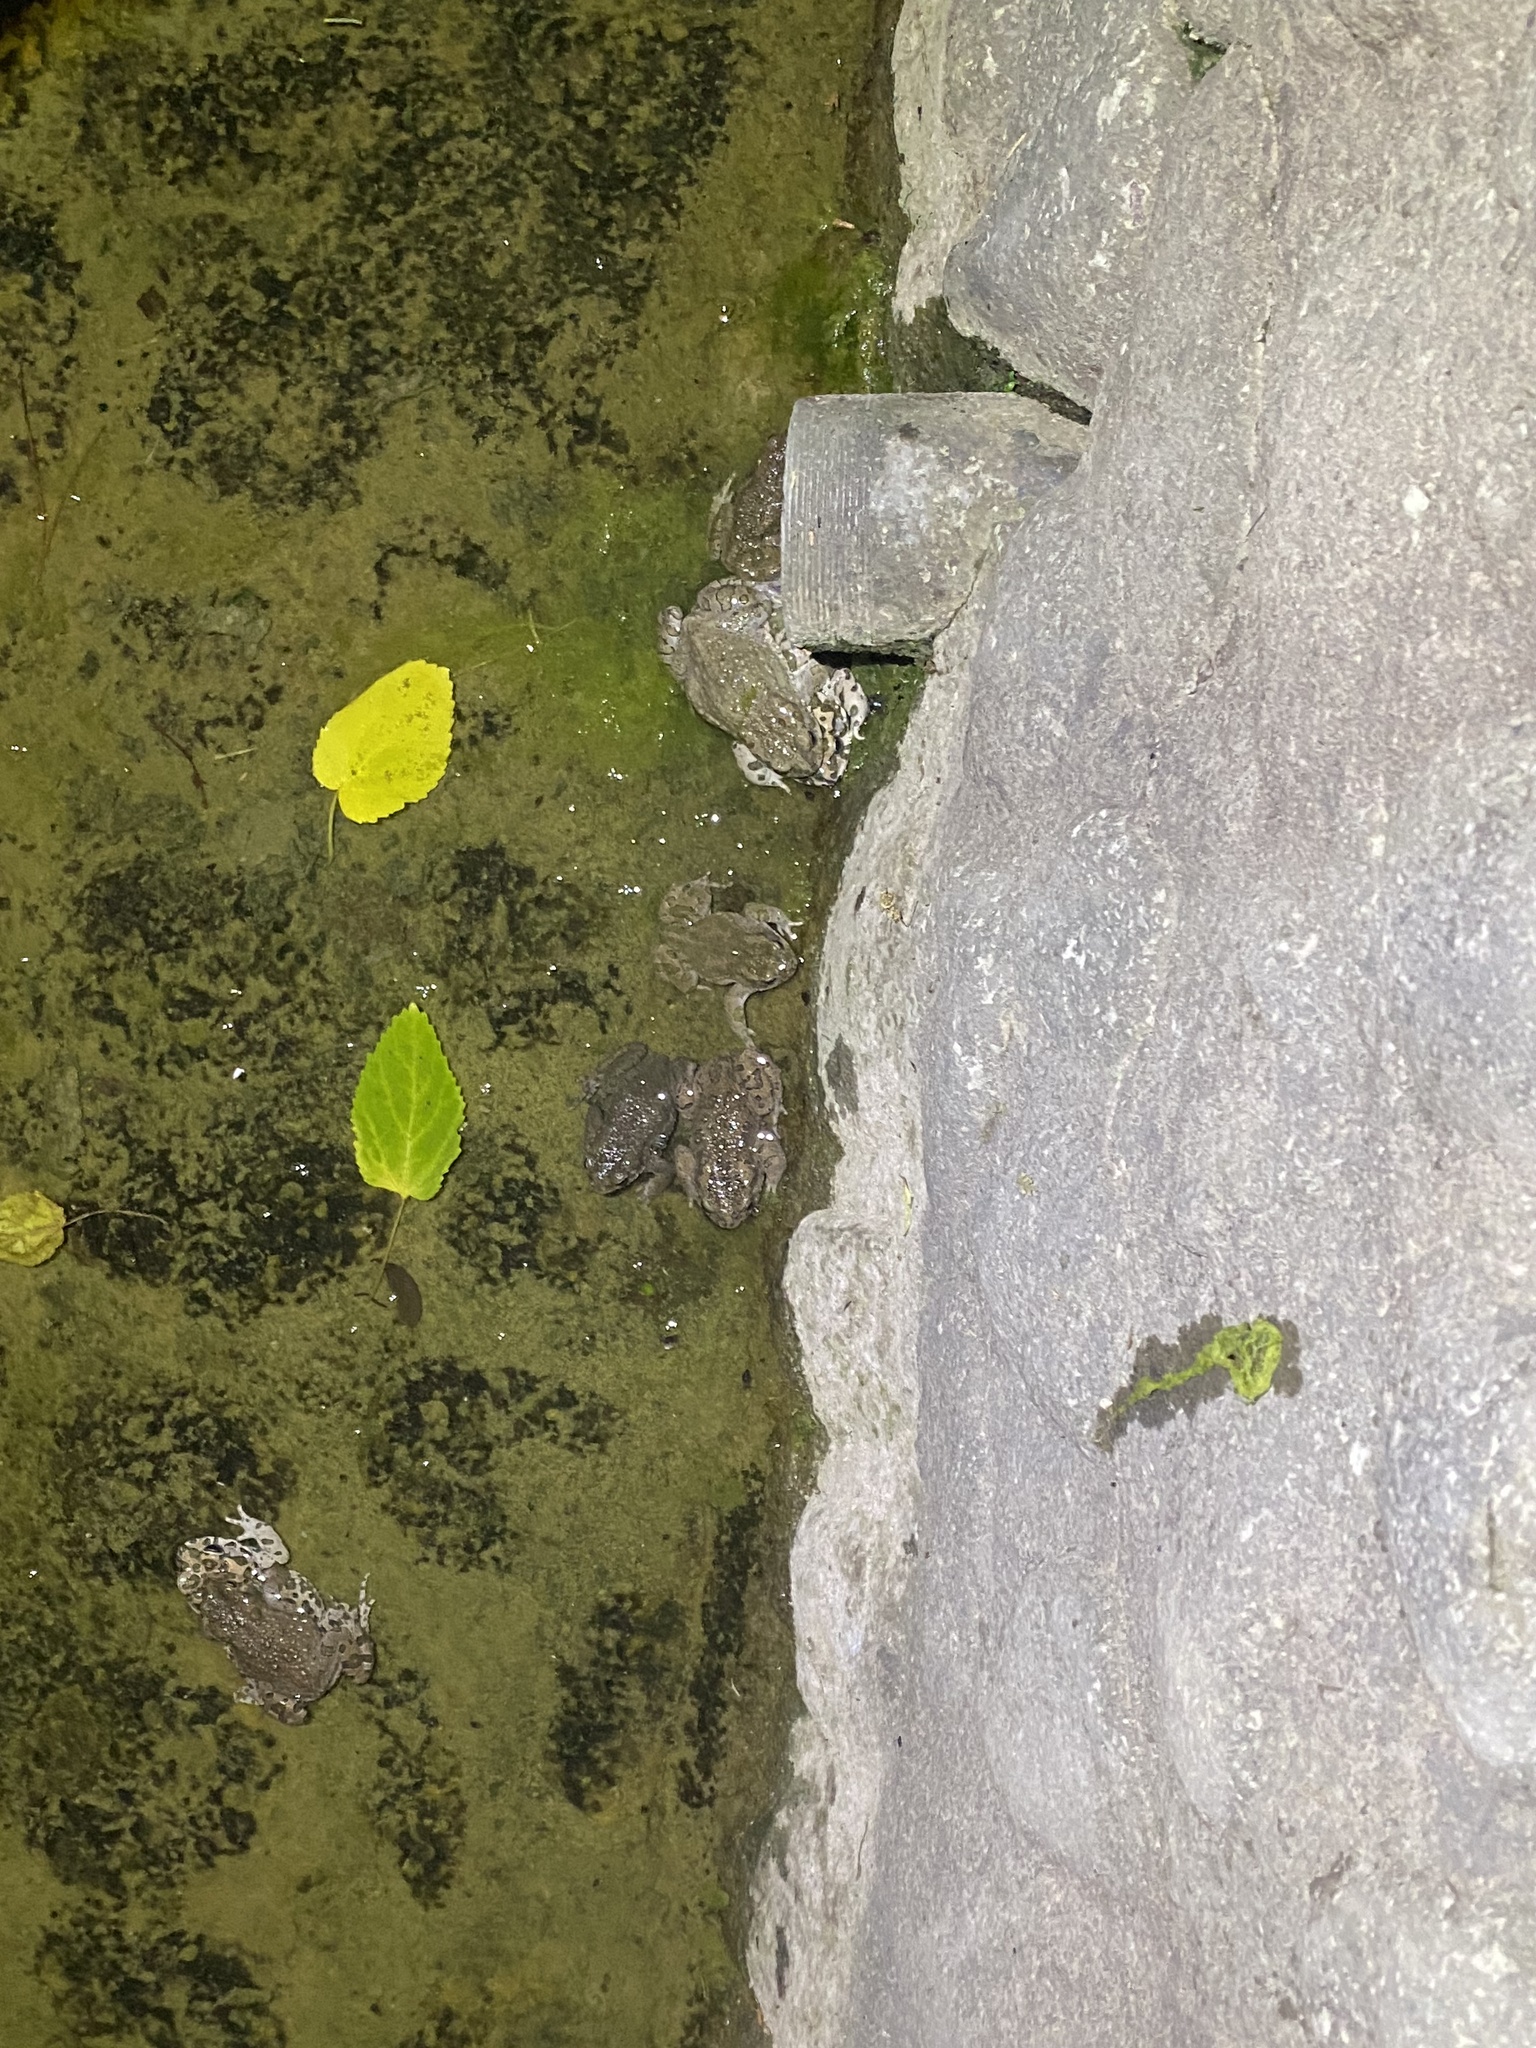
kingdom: Animalia
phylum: Chordata
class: Amphibia
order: Anura
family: Bufonidae
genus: Bufotes
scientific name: Bufotes viridis
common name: European green toad
